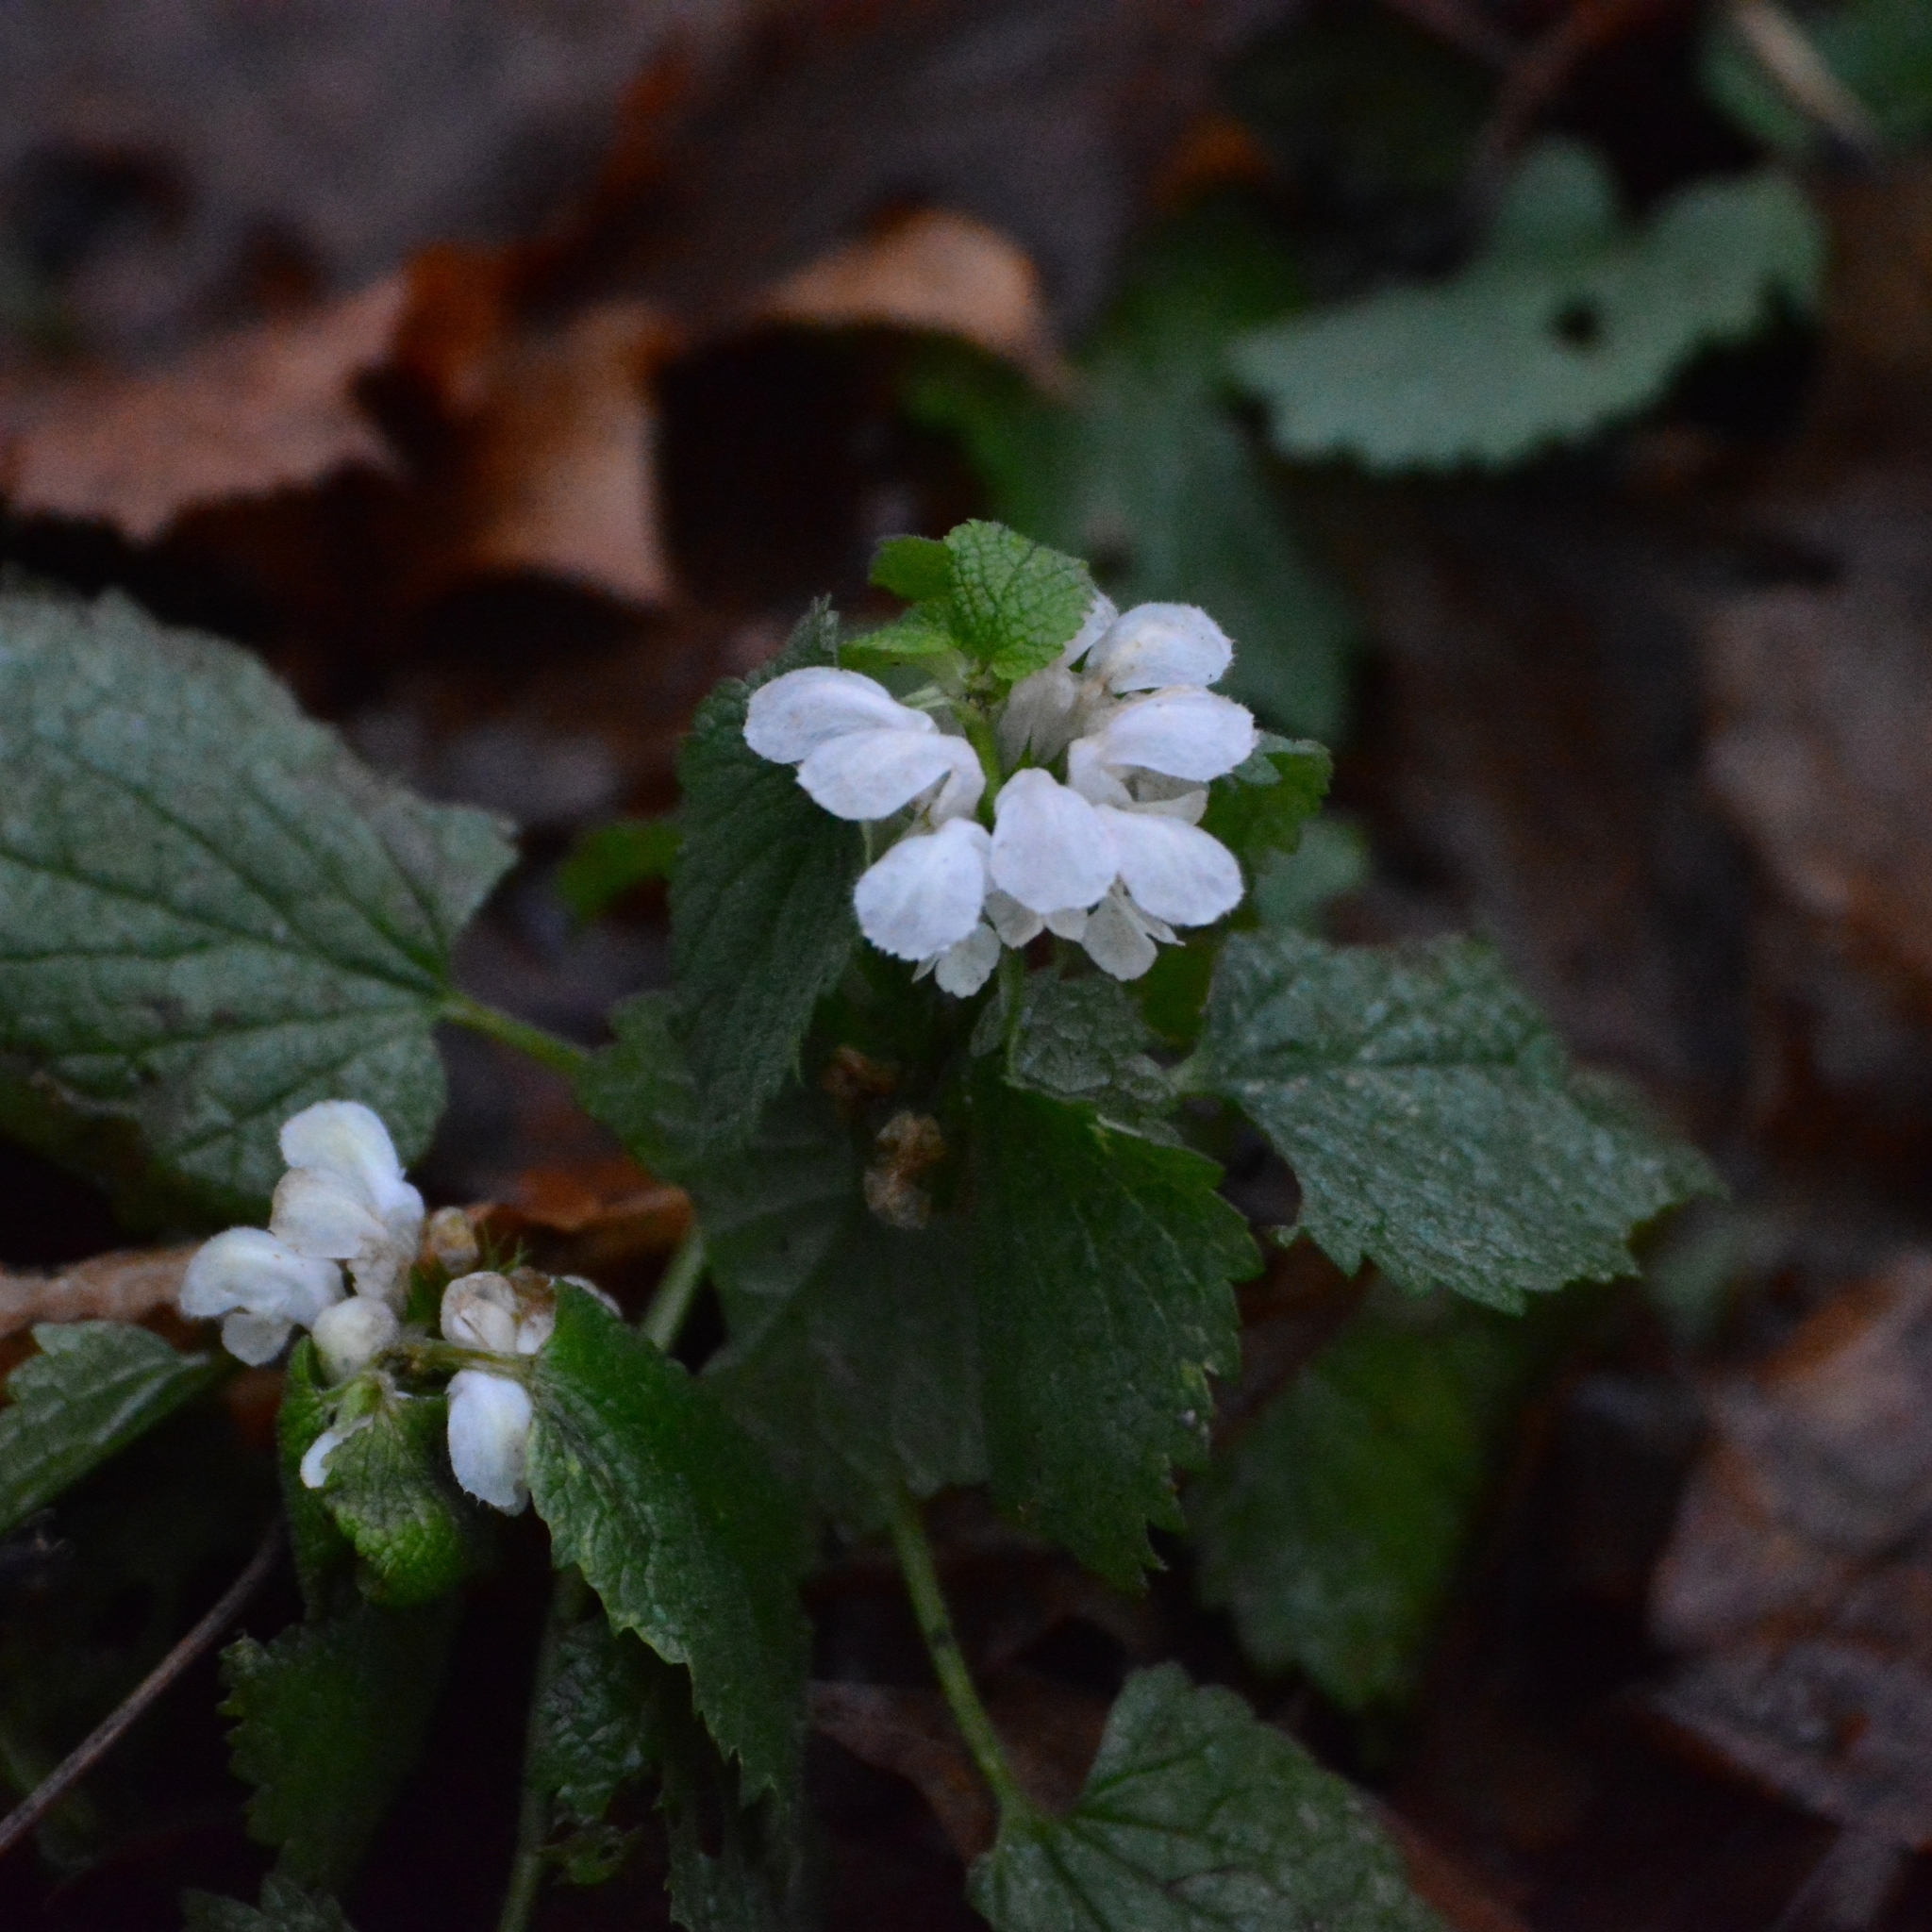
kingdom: Plantae
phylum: Tracheophyta
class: Magnoliopsida
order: Lamiales
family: Lamiaceae
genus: Lamium
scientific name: Lamium album
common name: White dead-nettle
